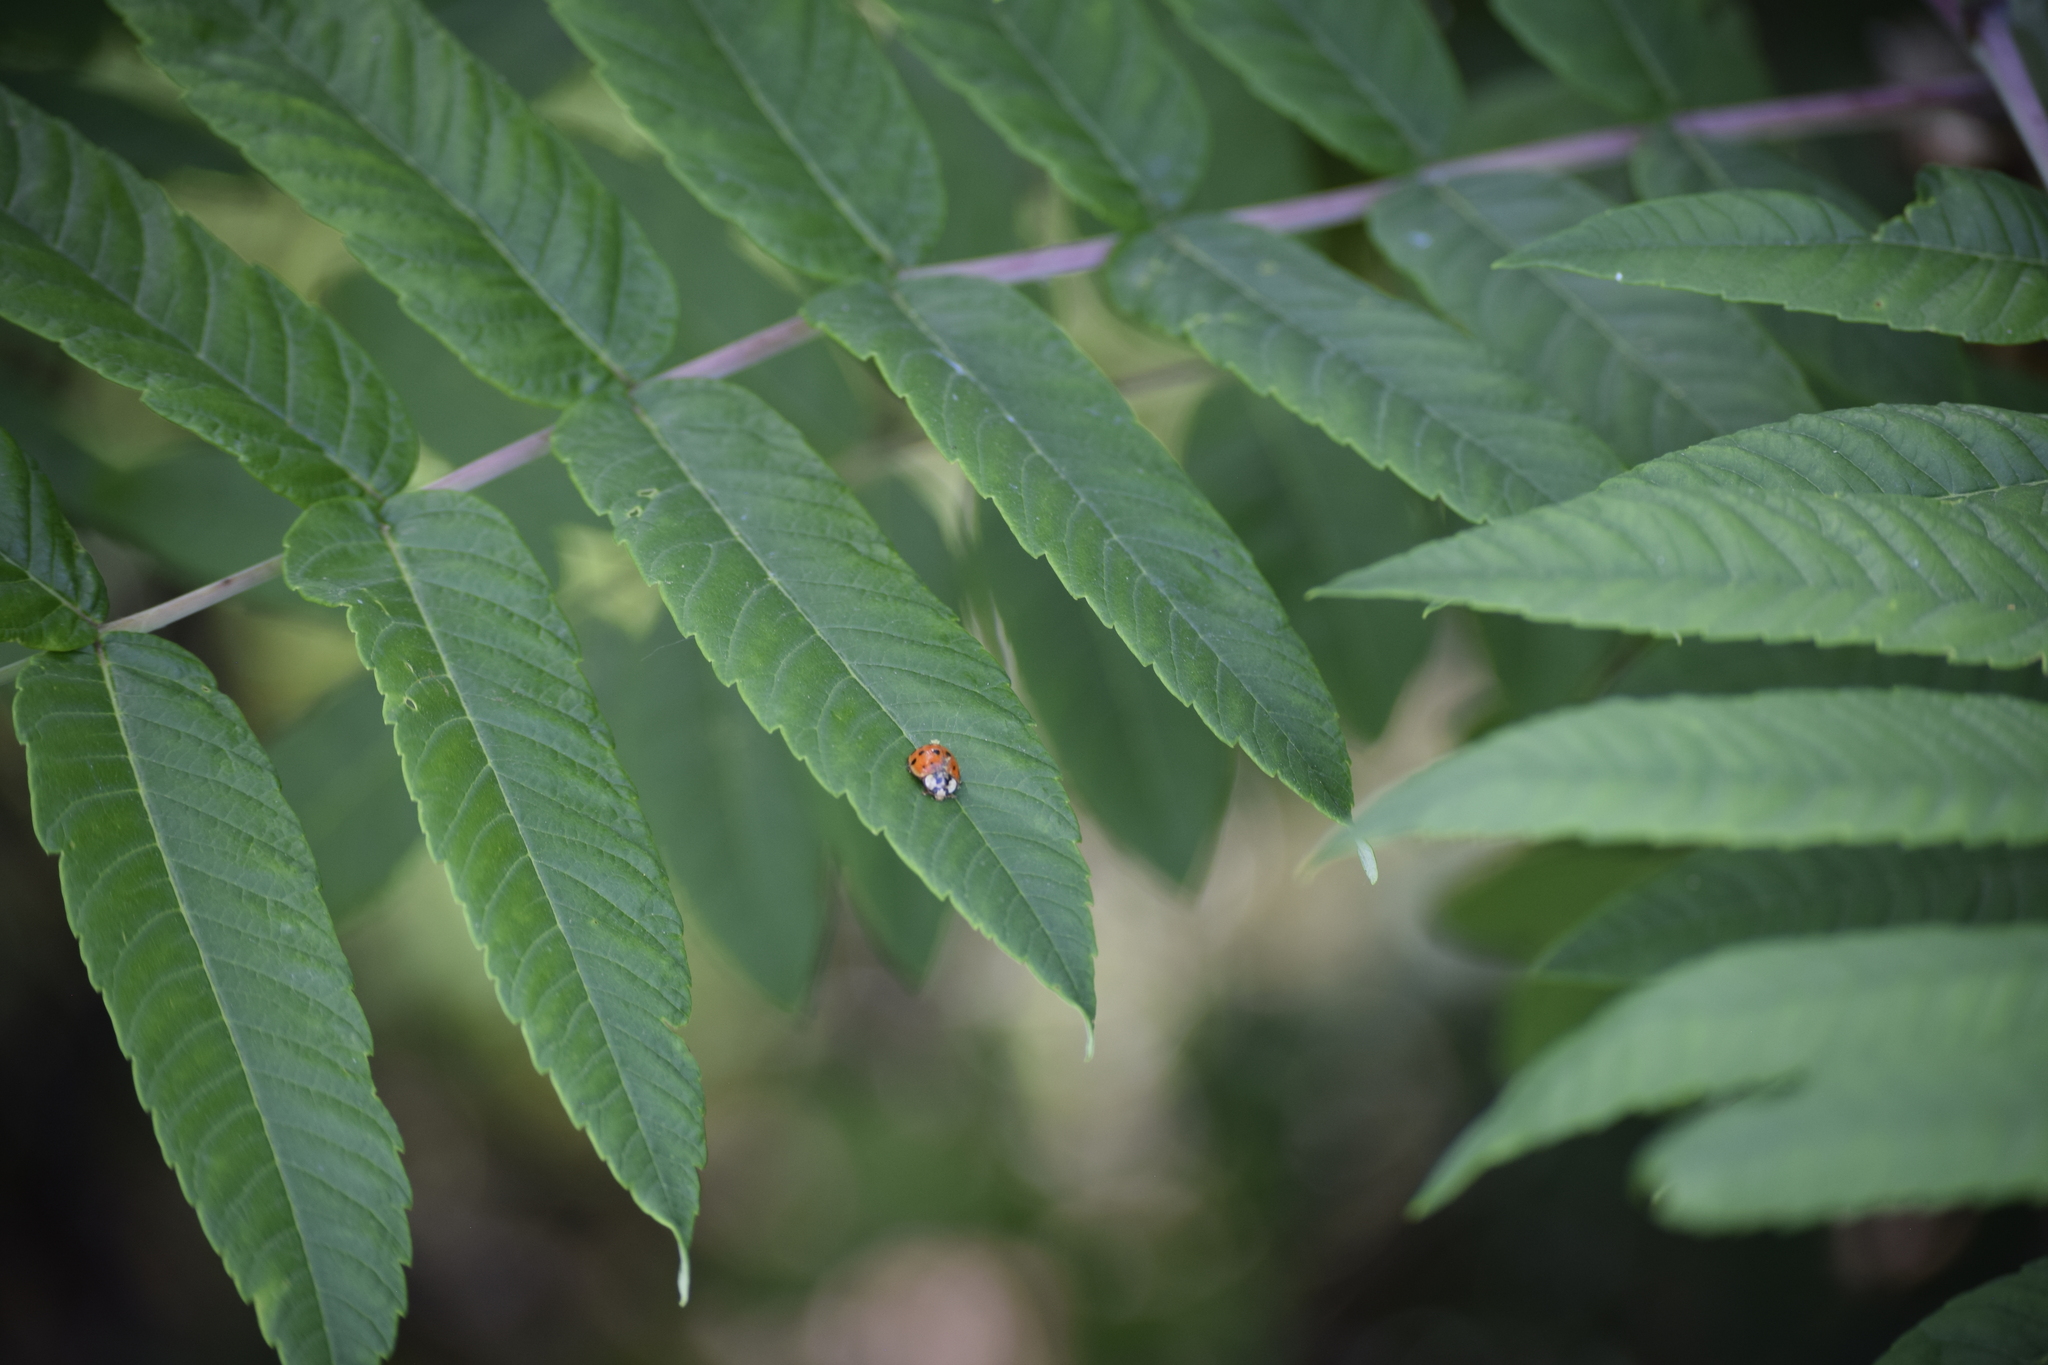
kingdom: Animalia
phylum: Arthropoda
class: Insecta
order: Coleoptera
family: Coccinellidae
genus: Harmonia
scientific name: Harmonia axyridis
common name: Harlequin ladybird
